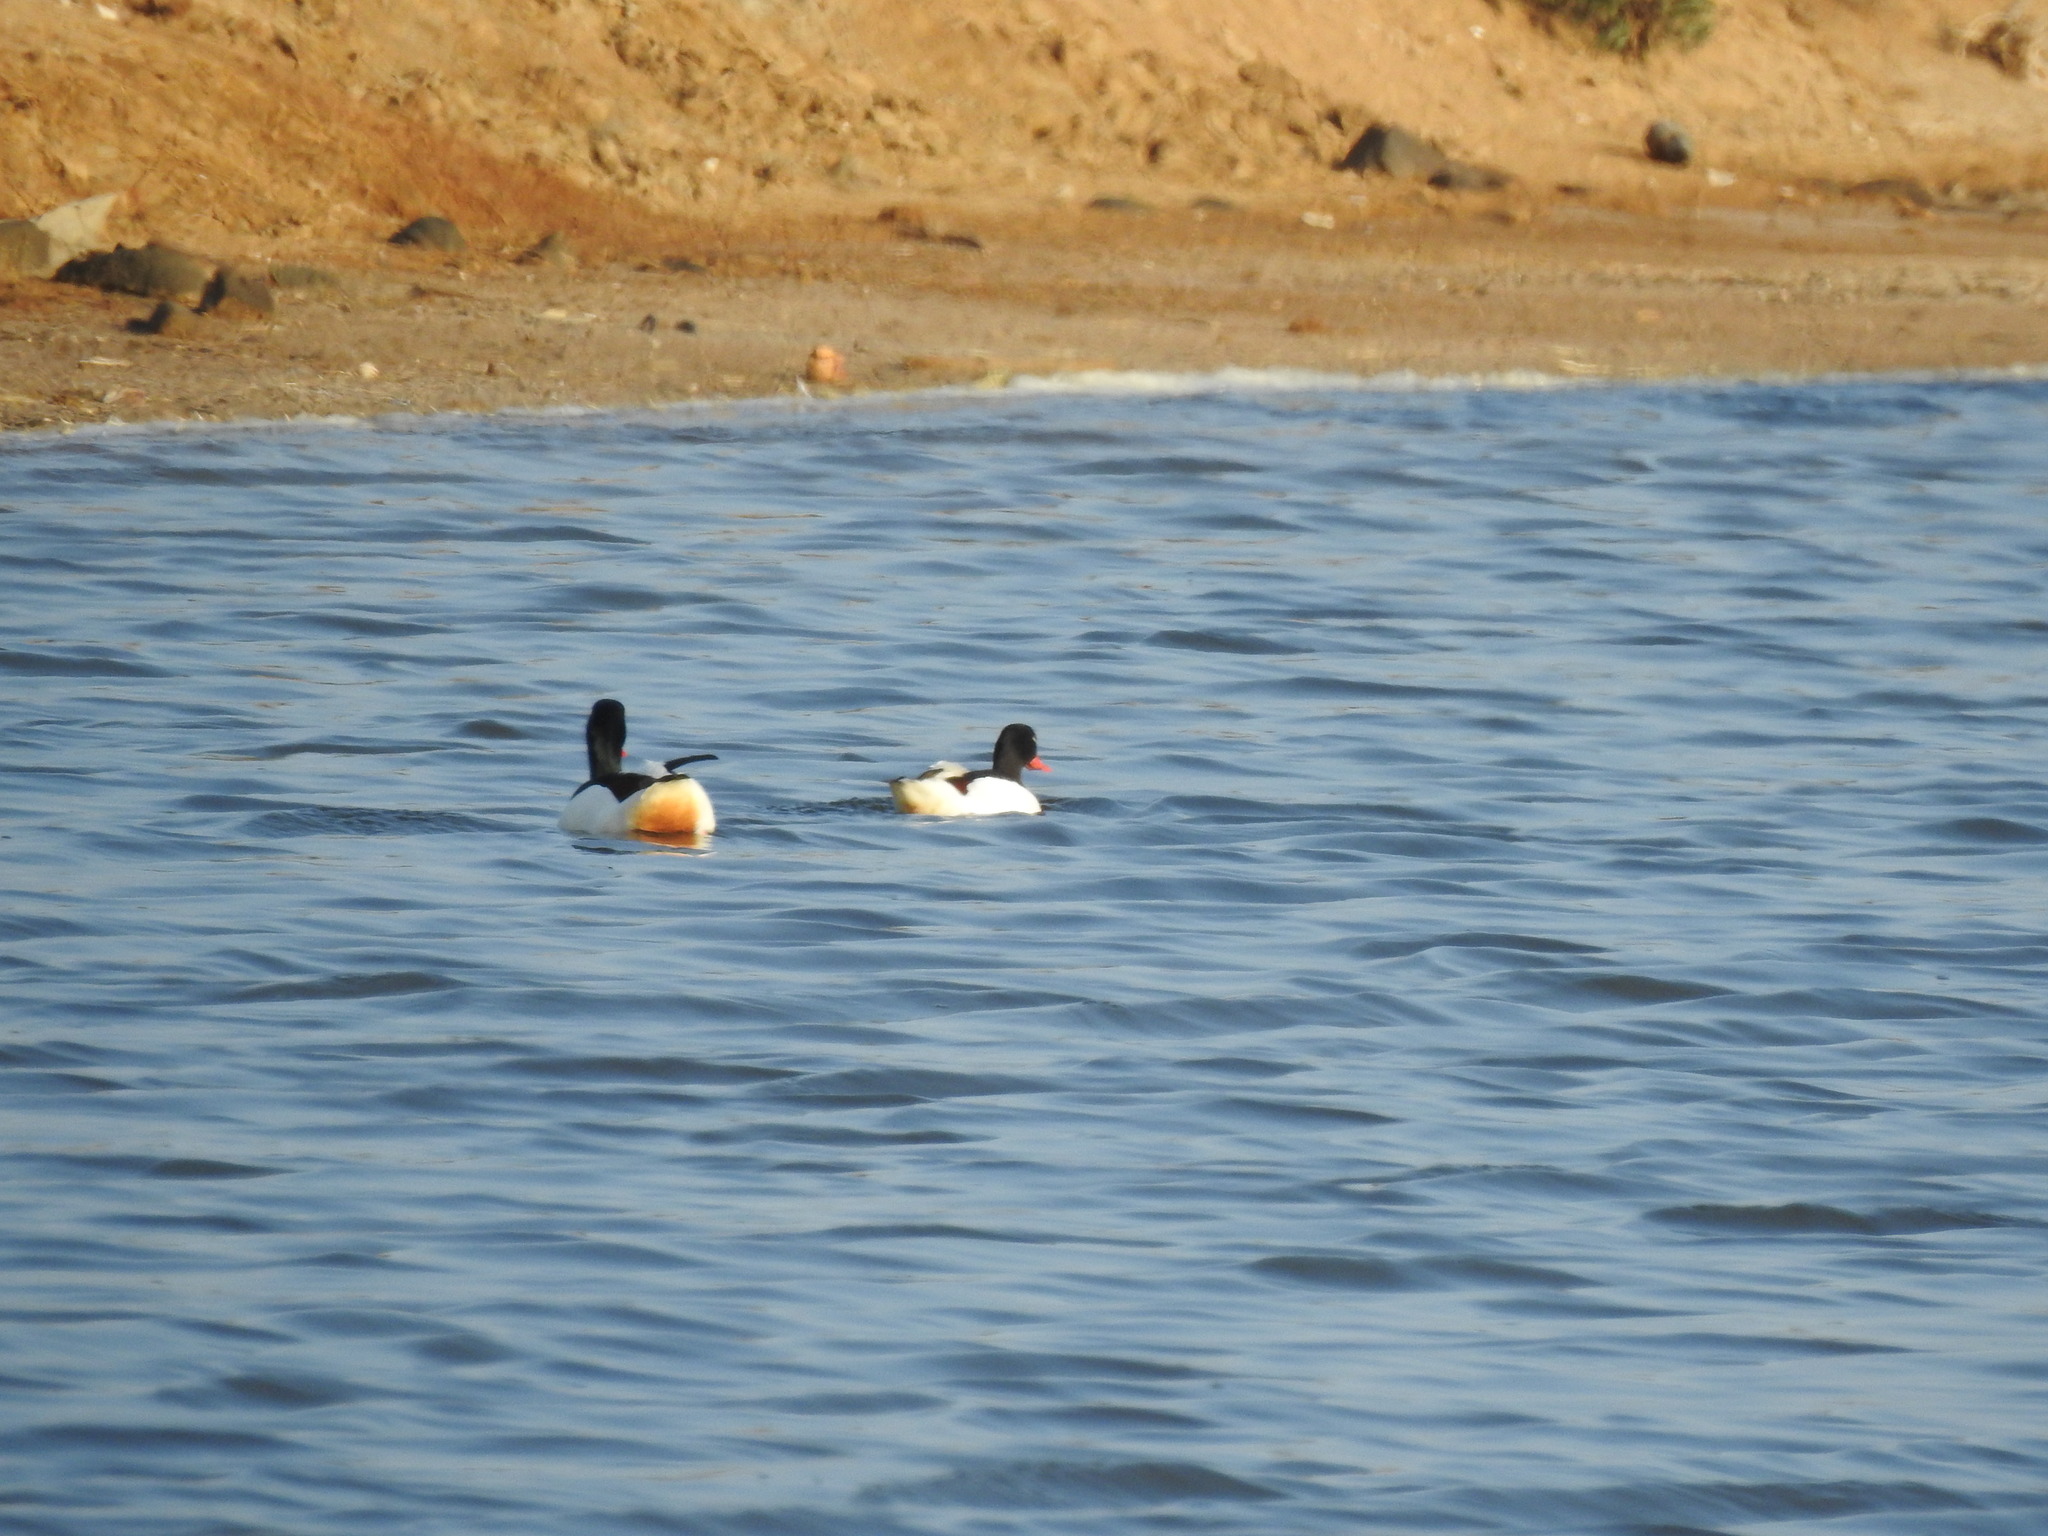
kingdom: Animalia
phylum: Chordata
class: Aves
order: Anseriformes
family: Anatidae
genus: Tadorna
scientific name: Tadorna tadorna
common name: Common shelduck
